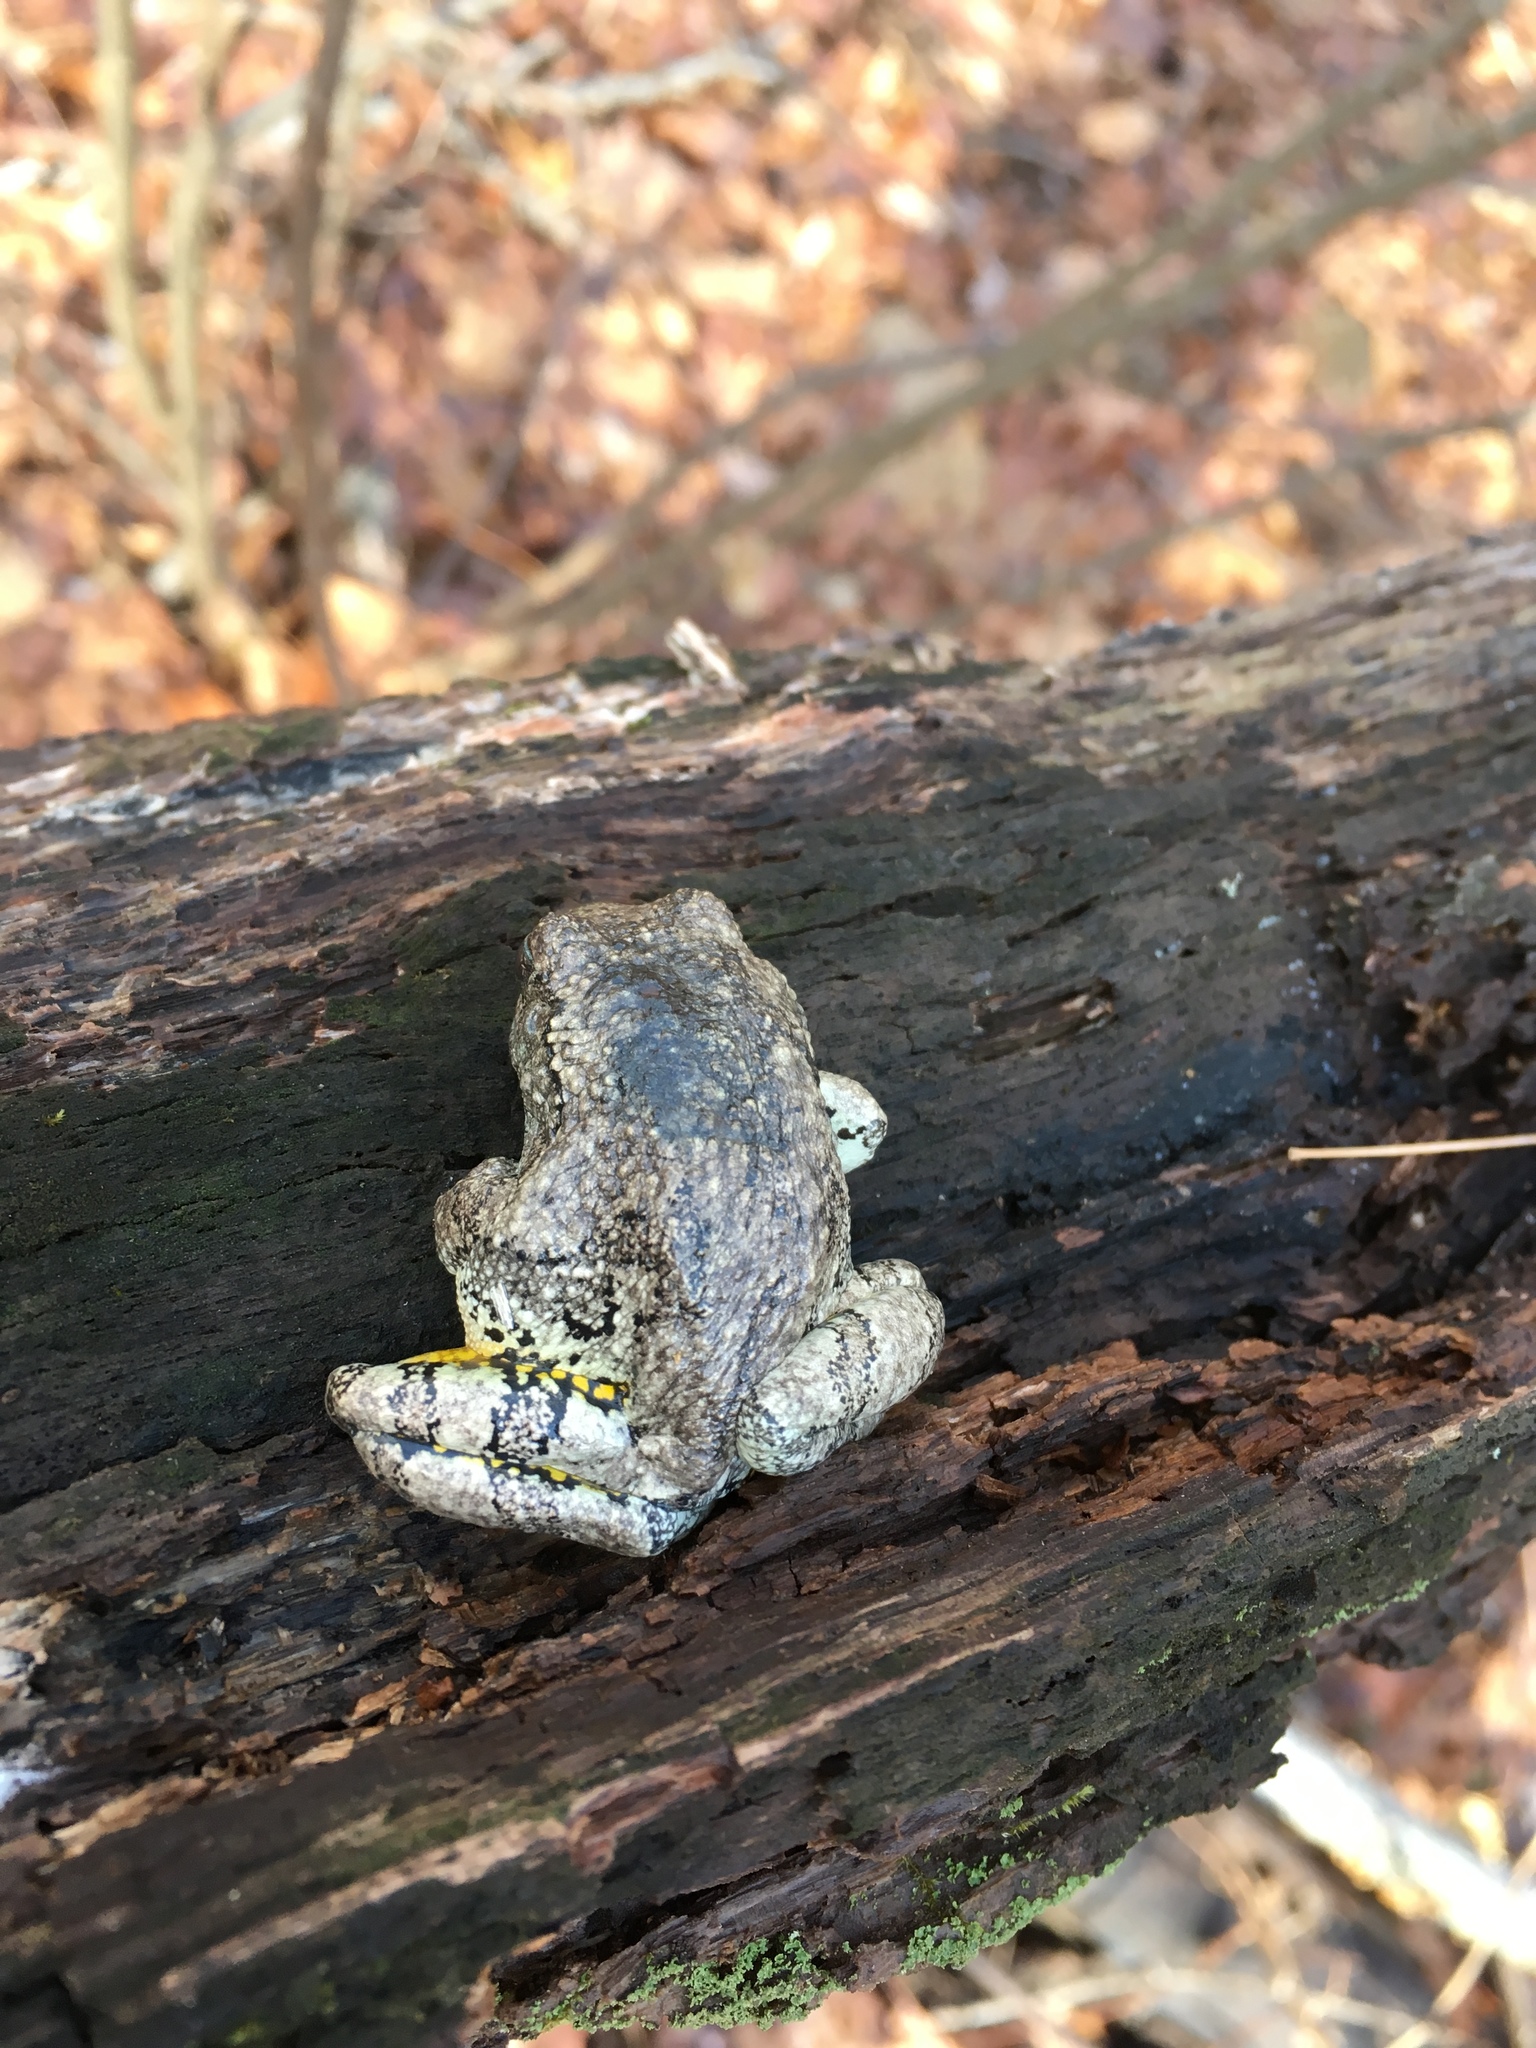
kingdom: Animalia
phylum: Chordata
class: Amphibia
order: Anura
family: Hylidae
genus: Dryophytes
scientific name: Dryophytes versicolor
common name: Gray treefrog
